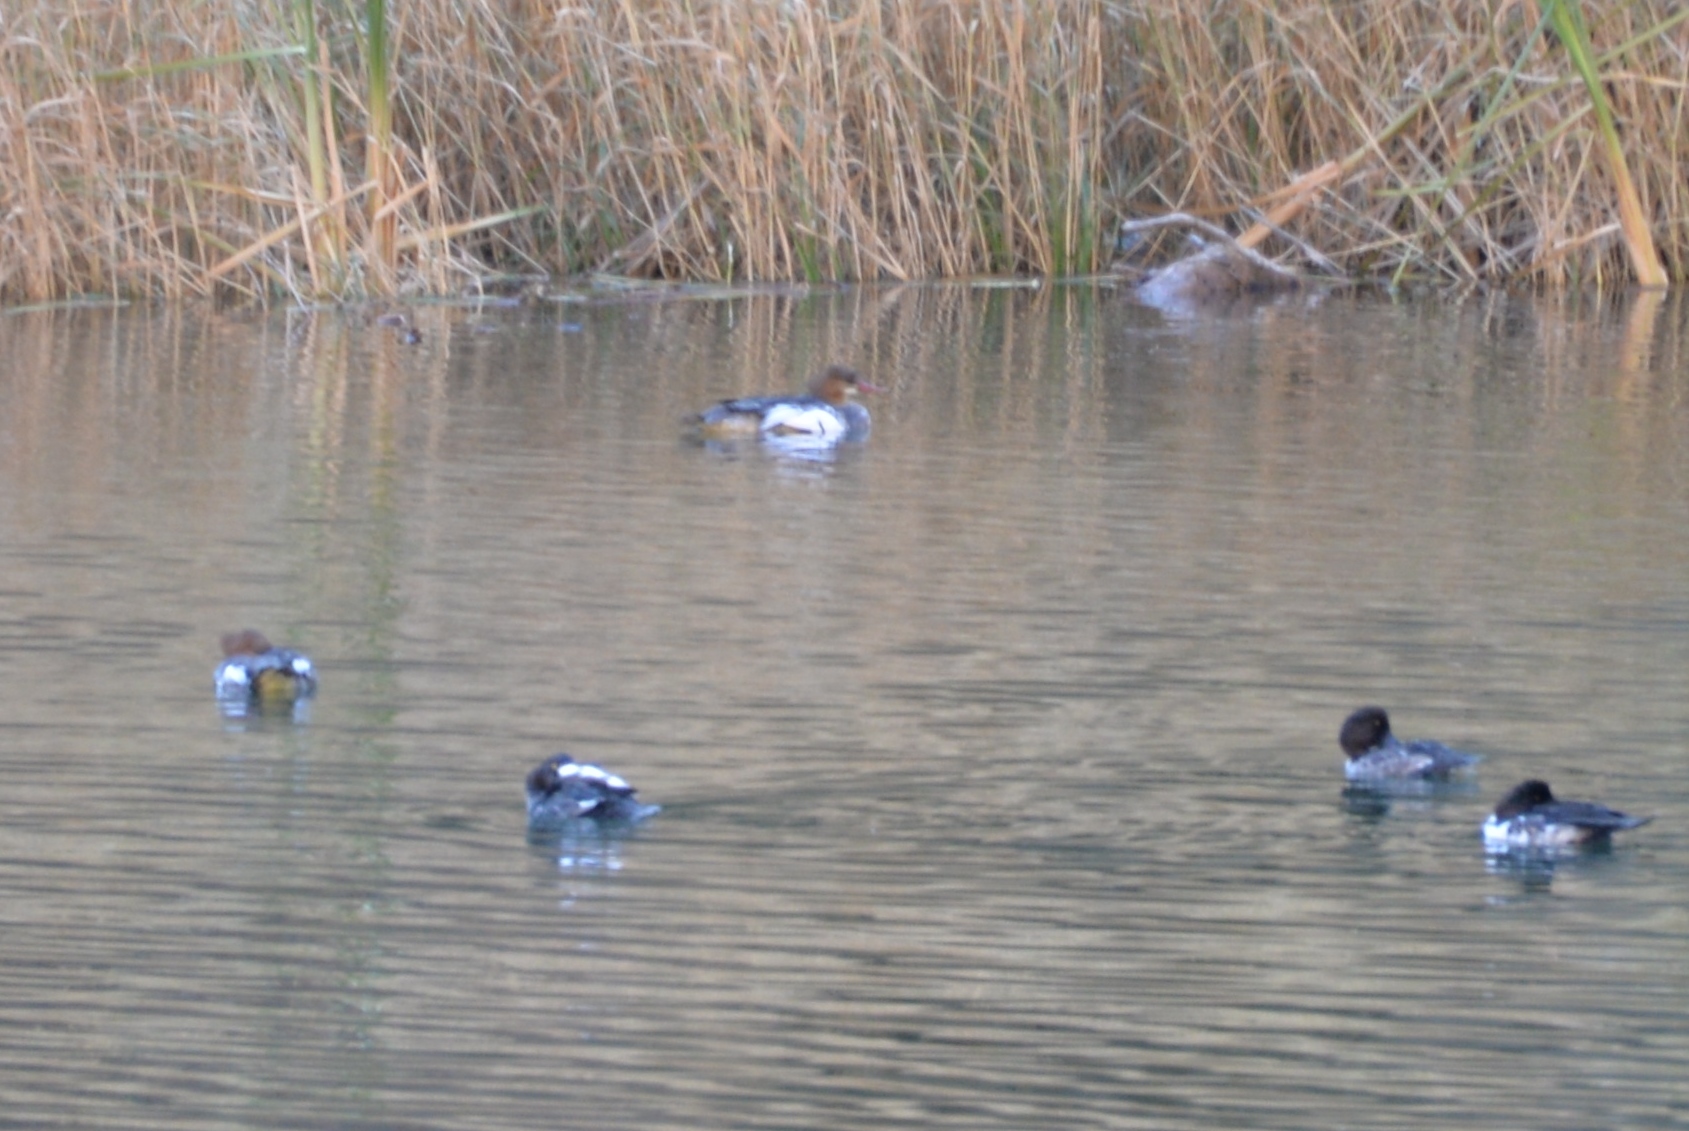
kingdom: Animalia
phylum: Chordata
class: Aves
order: Anseriformes
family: Anatidae
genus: Mergus
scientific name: Mergus merganser
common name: Common merganser
